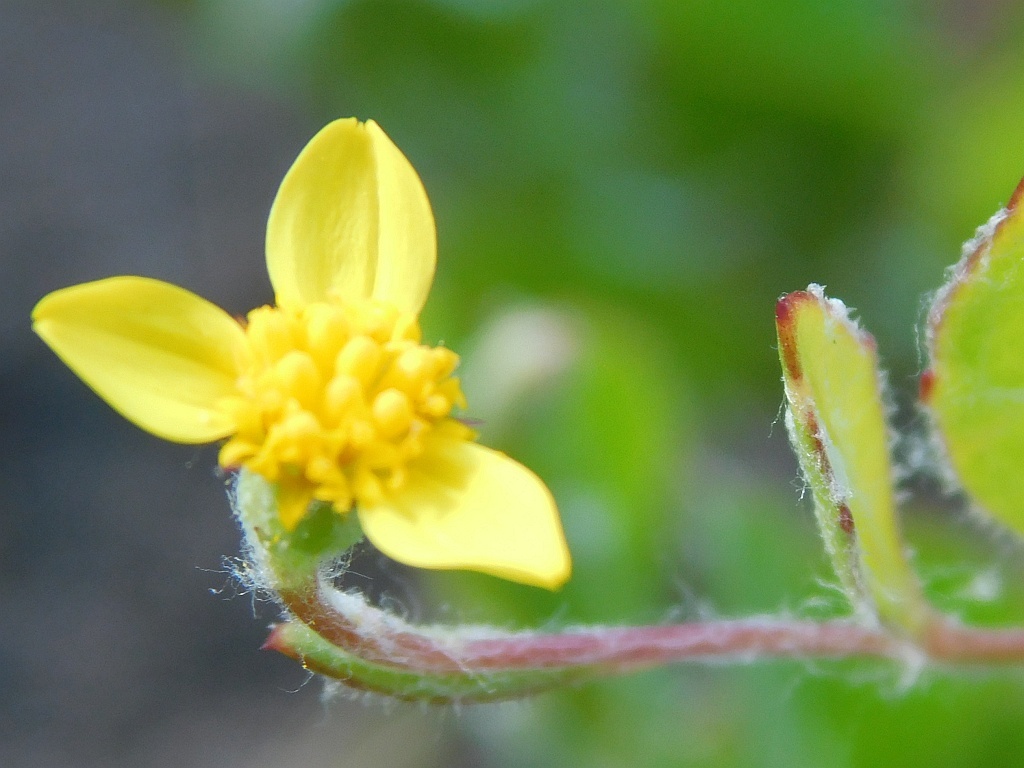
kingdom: Plantae
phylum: Tracheophyta
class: Magnoliopsida
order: Asterales
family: Asteraceae
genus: Osteospermum
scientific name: Osteospermum ciliatum
